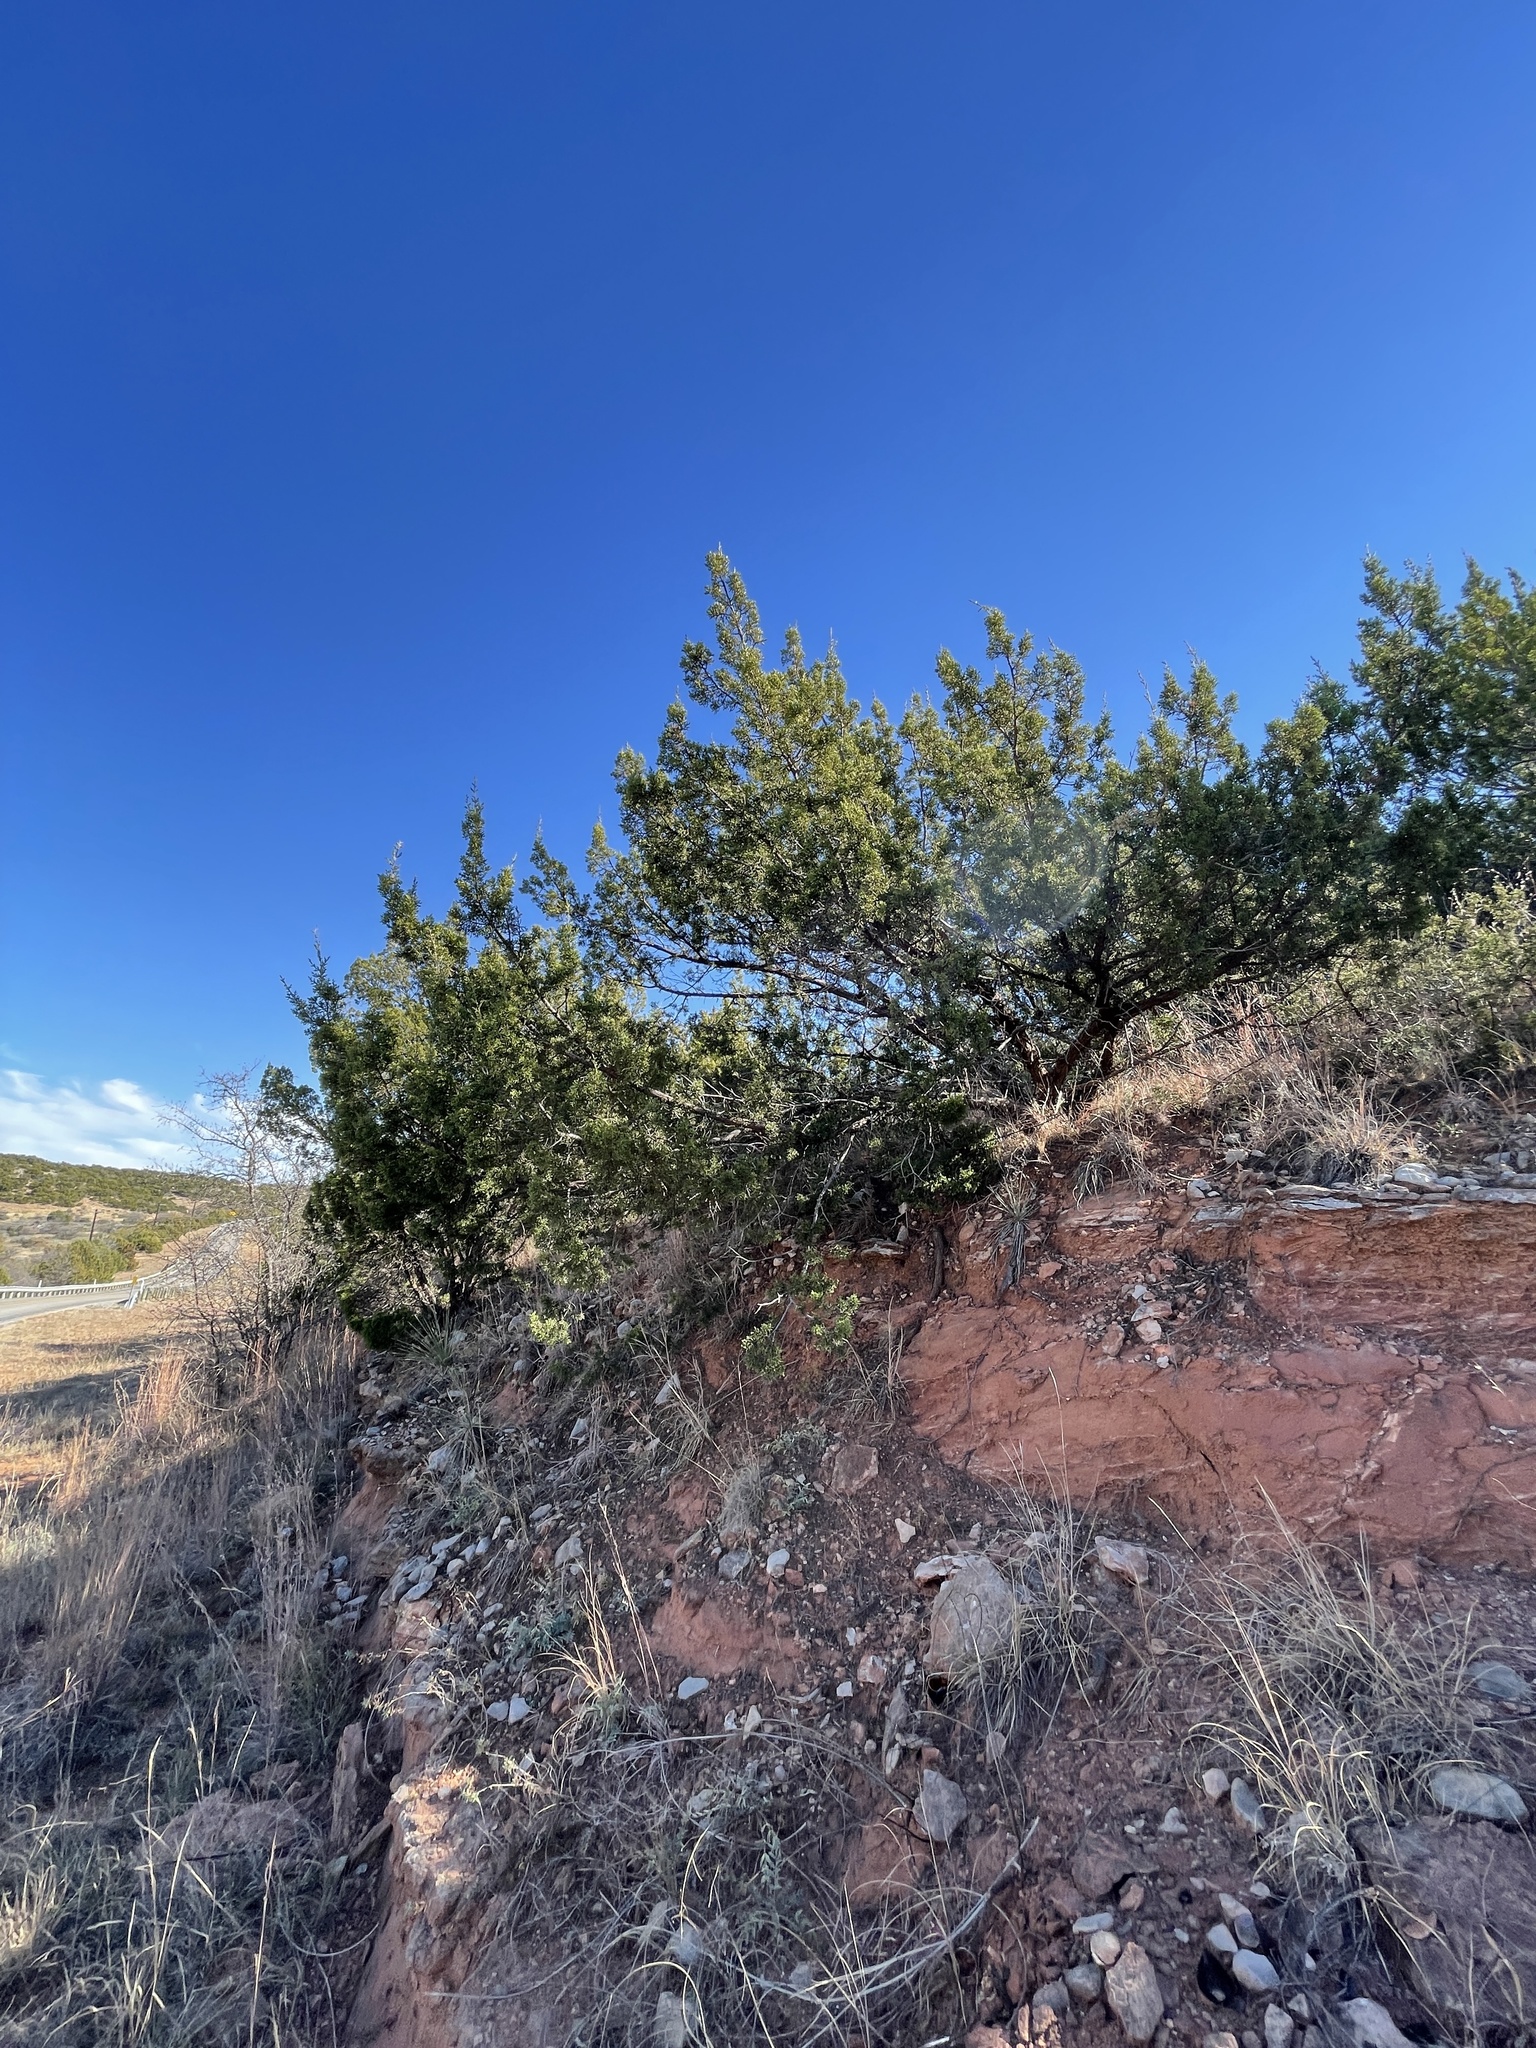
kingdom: Plantae
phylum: Tracheophyta
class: Pinopsida
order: Pinales
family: Cupressaceae
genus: Juniperus
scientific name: Juniperus pinchotii
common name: Pinchot juniper
